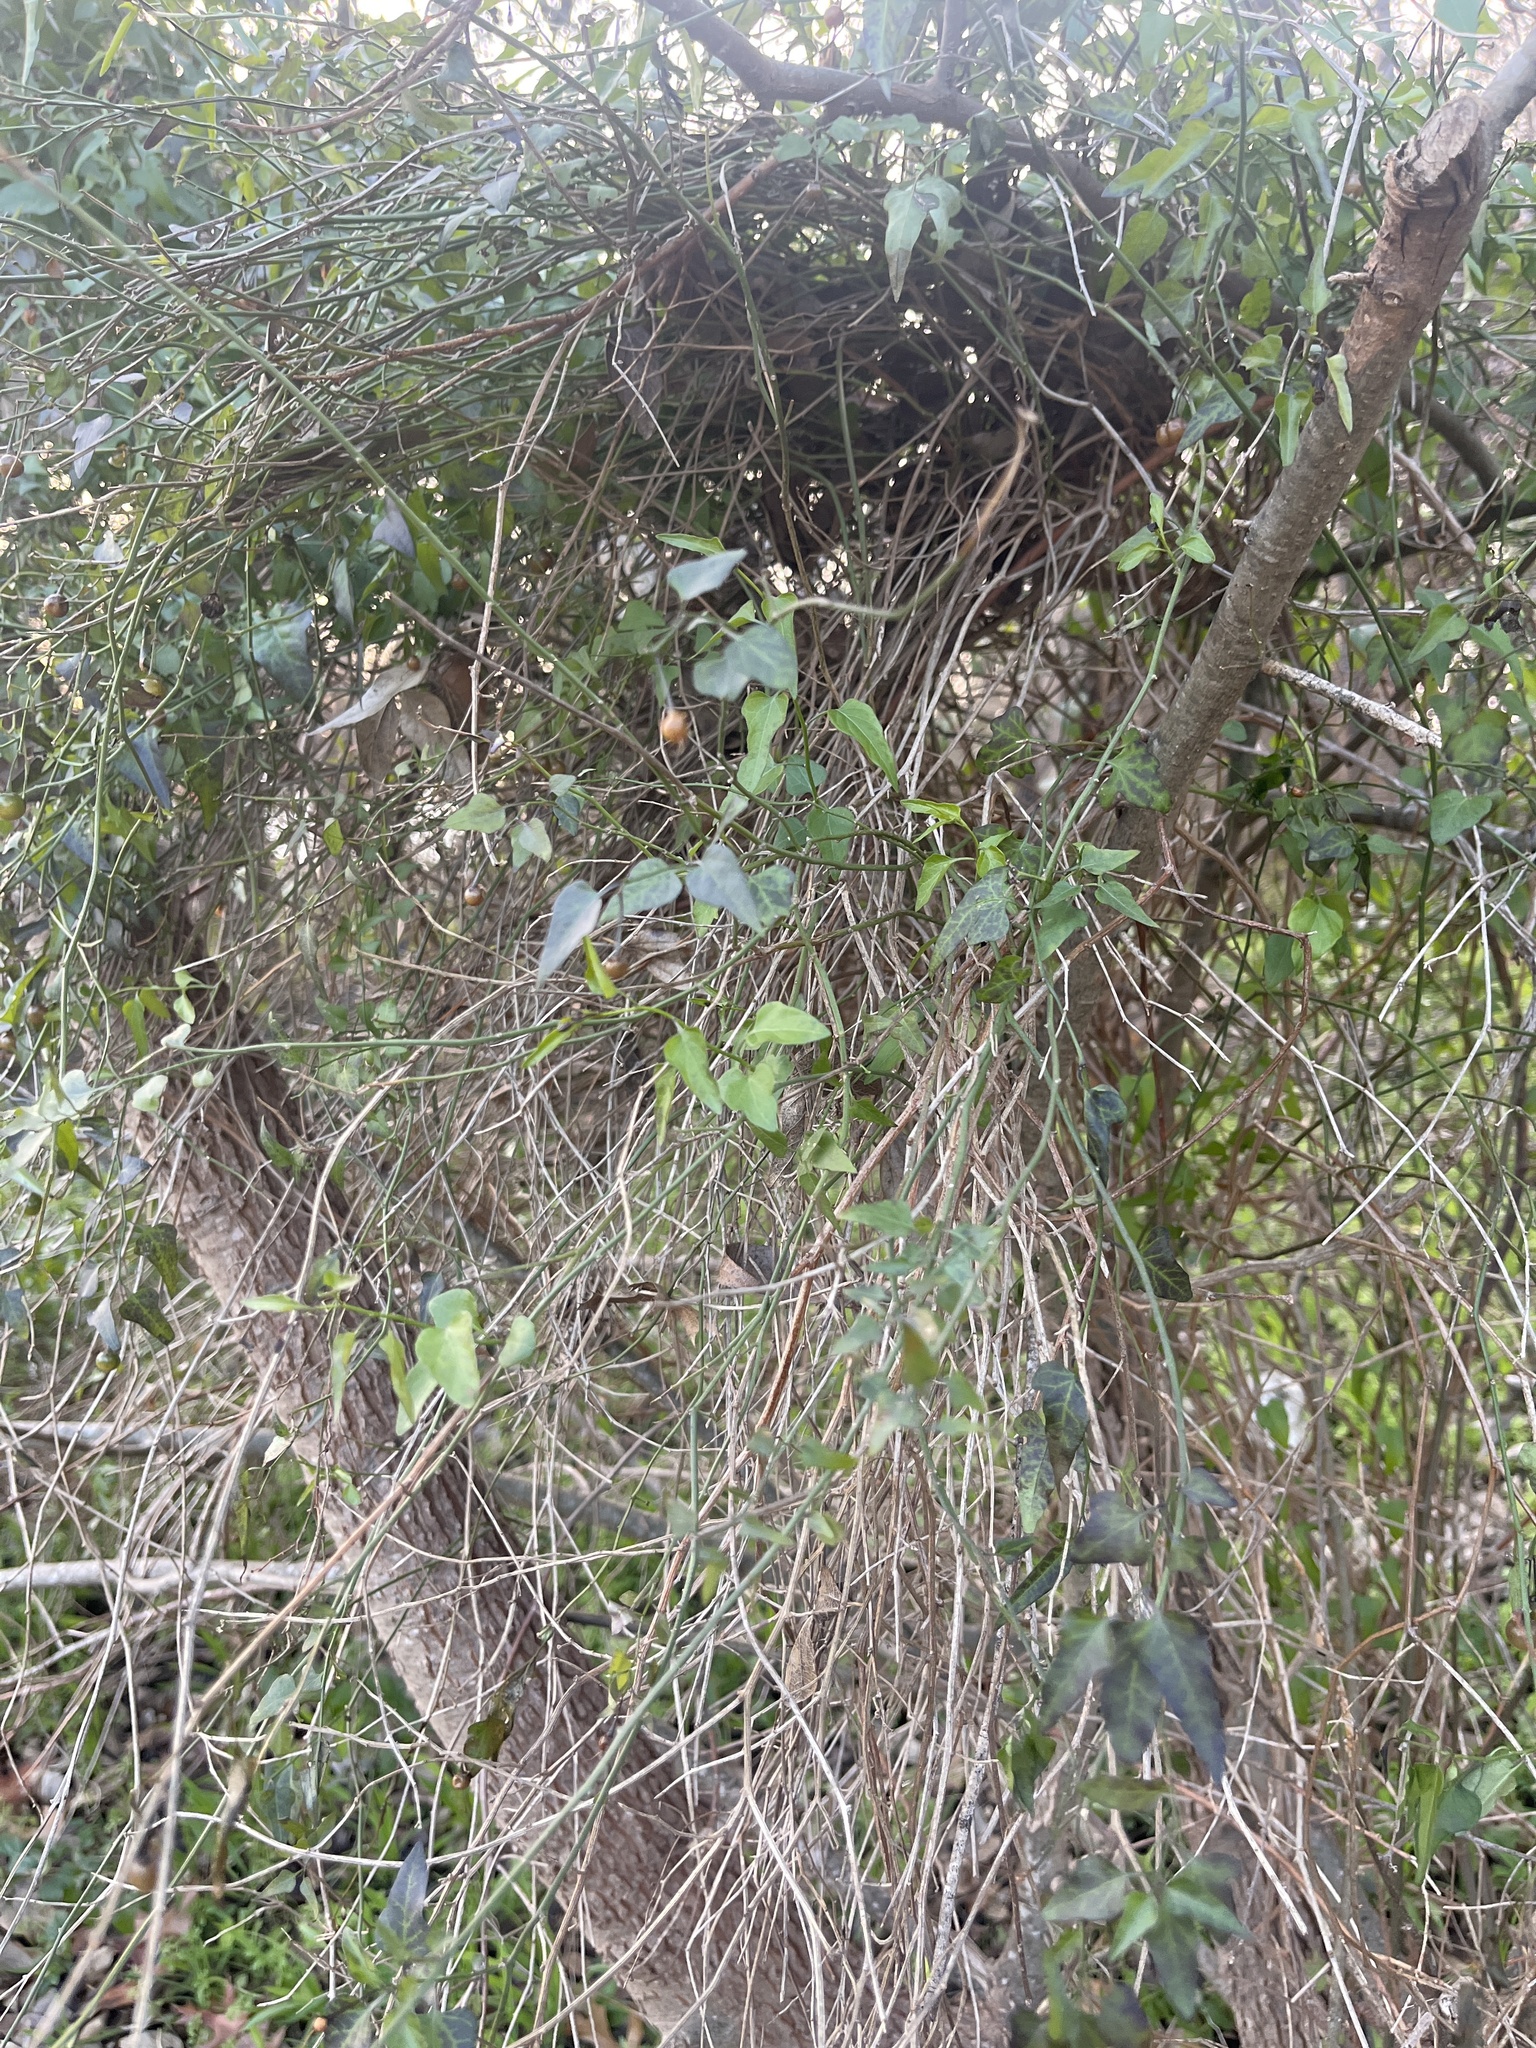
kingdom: Plantae
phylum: Tracheophyta
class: Magnoliopsida
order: Solanales
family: Solanaceae
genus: Solanum
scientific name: Solanum triquetrum
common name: Texas nightshade
